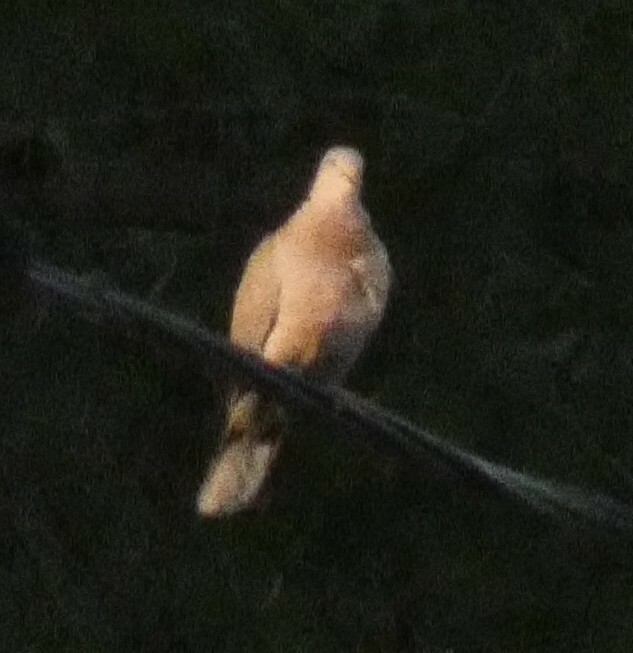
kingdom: Animalia
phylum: Chordata
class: Aves
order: Columbiformes
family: Columbidae
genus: Streptopelia
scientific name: Streptopelia decaocto
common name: Eurasian collared dove
